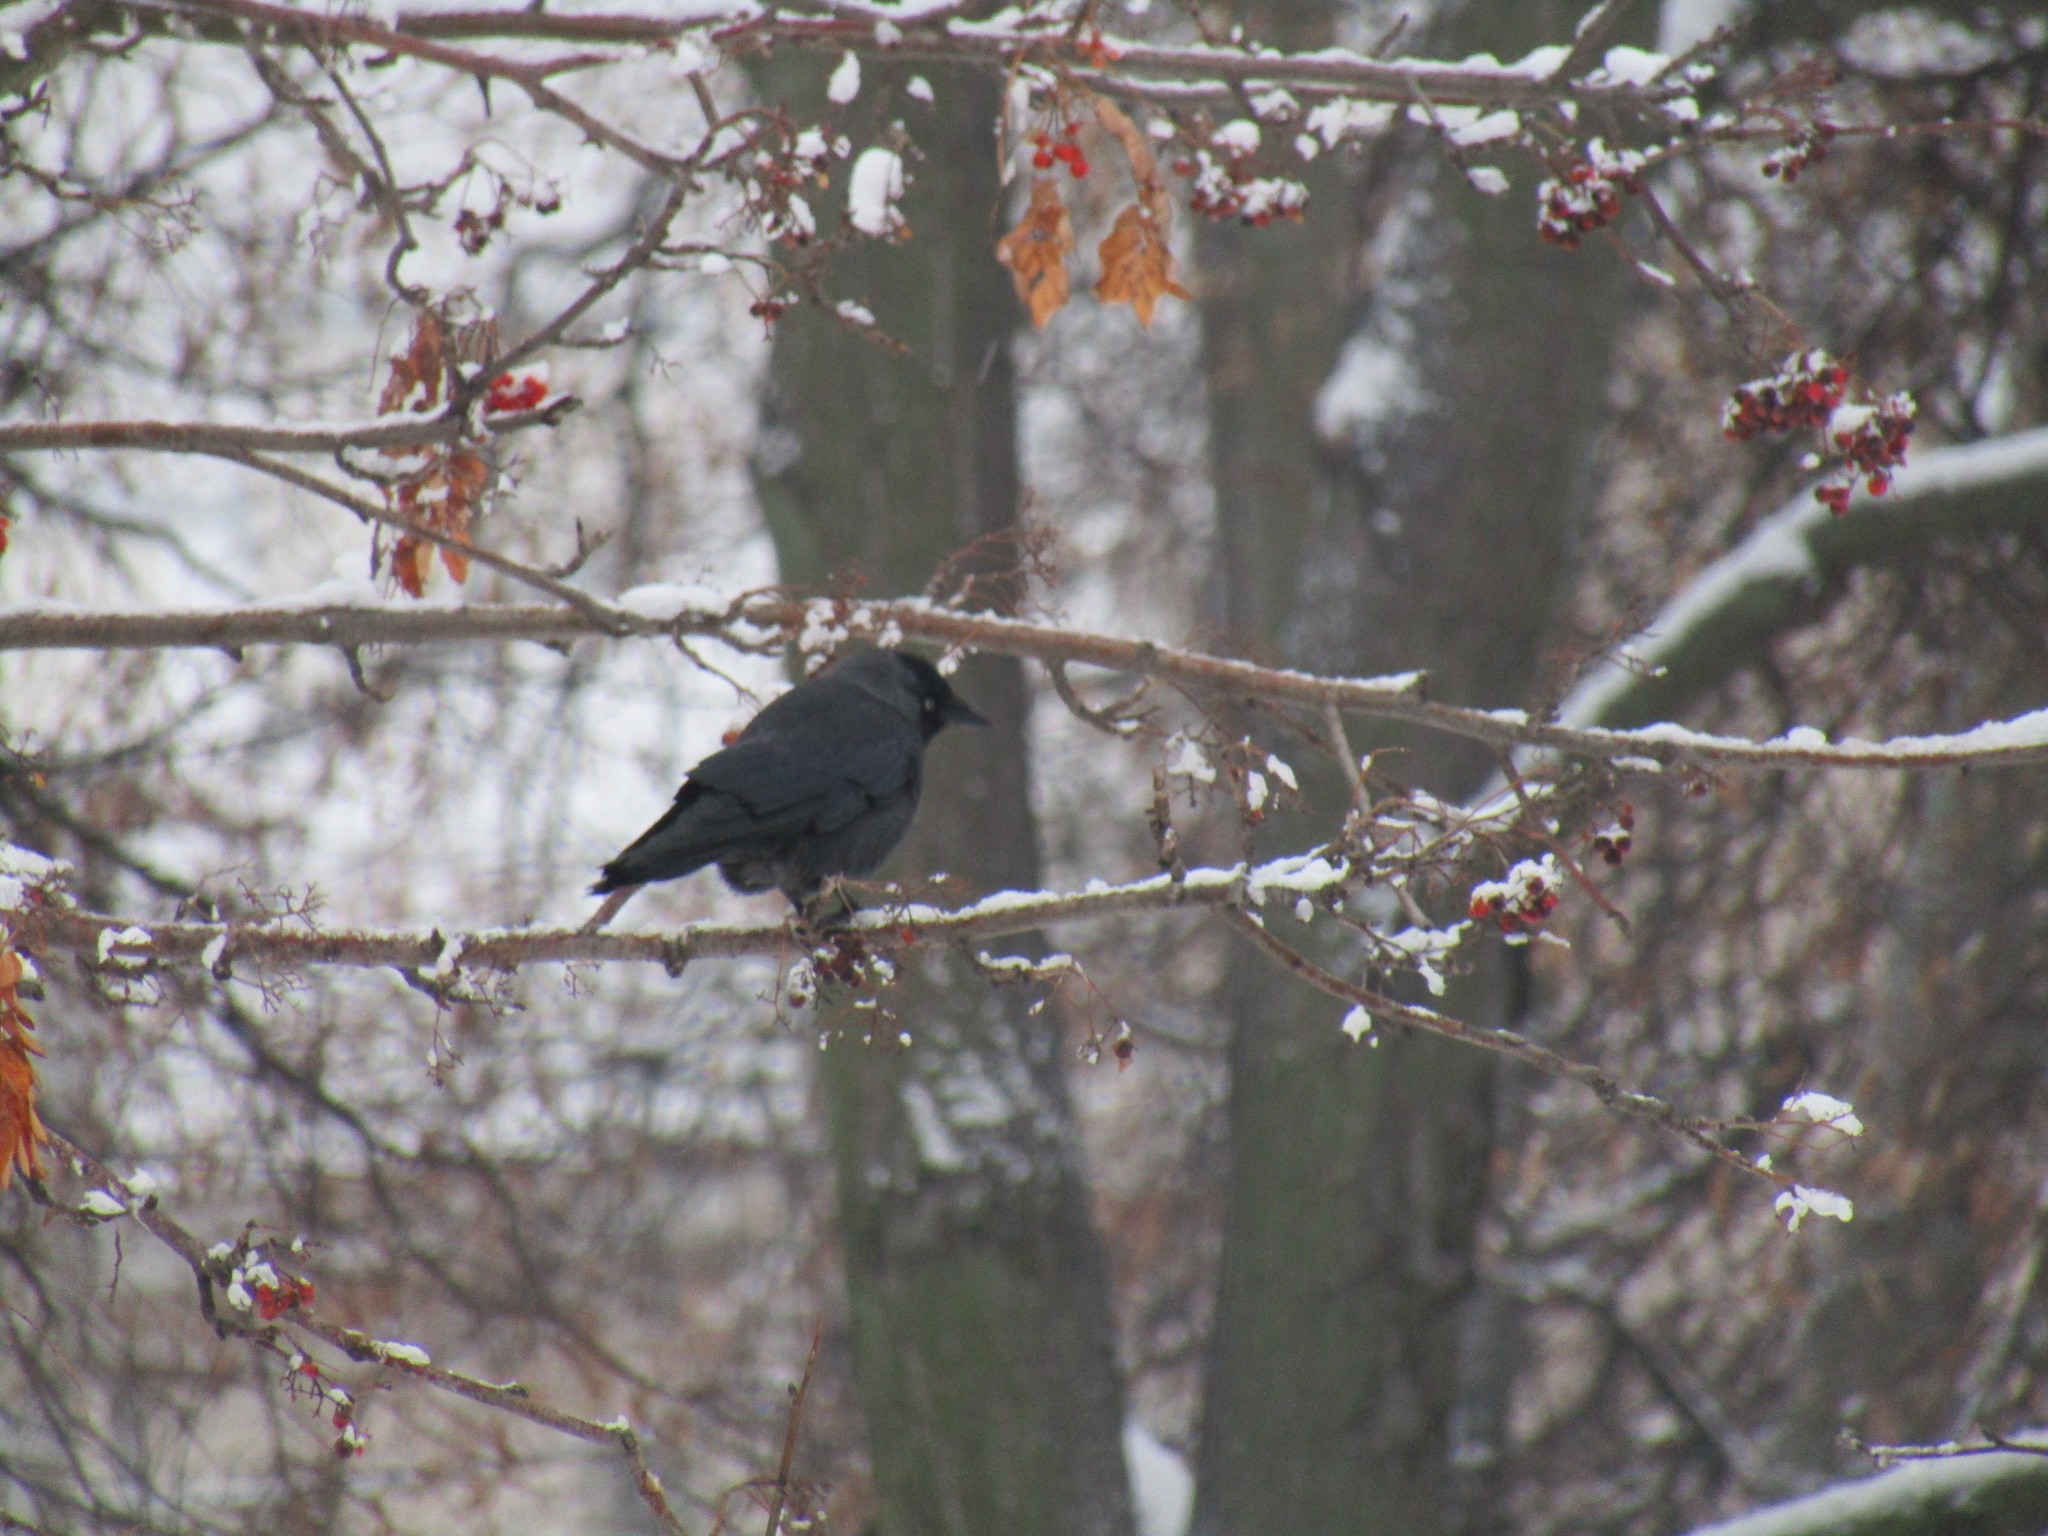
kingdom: Animalia
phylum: Chordata
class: Aves
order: Passeriformes
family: Corvidae
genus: Coloeus
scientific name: Coloeus monedula
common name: Western jackdaw
